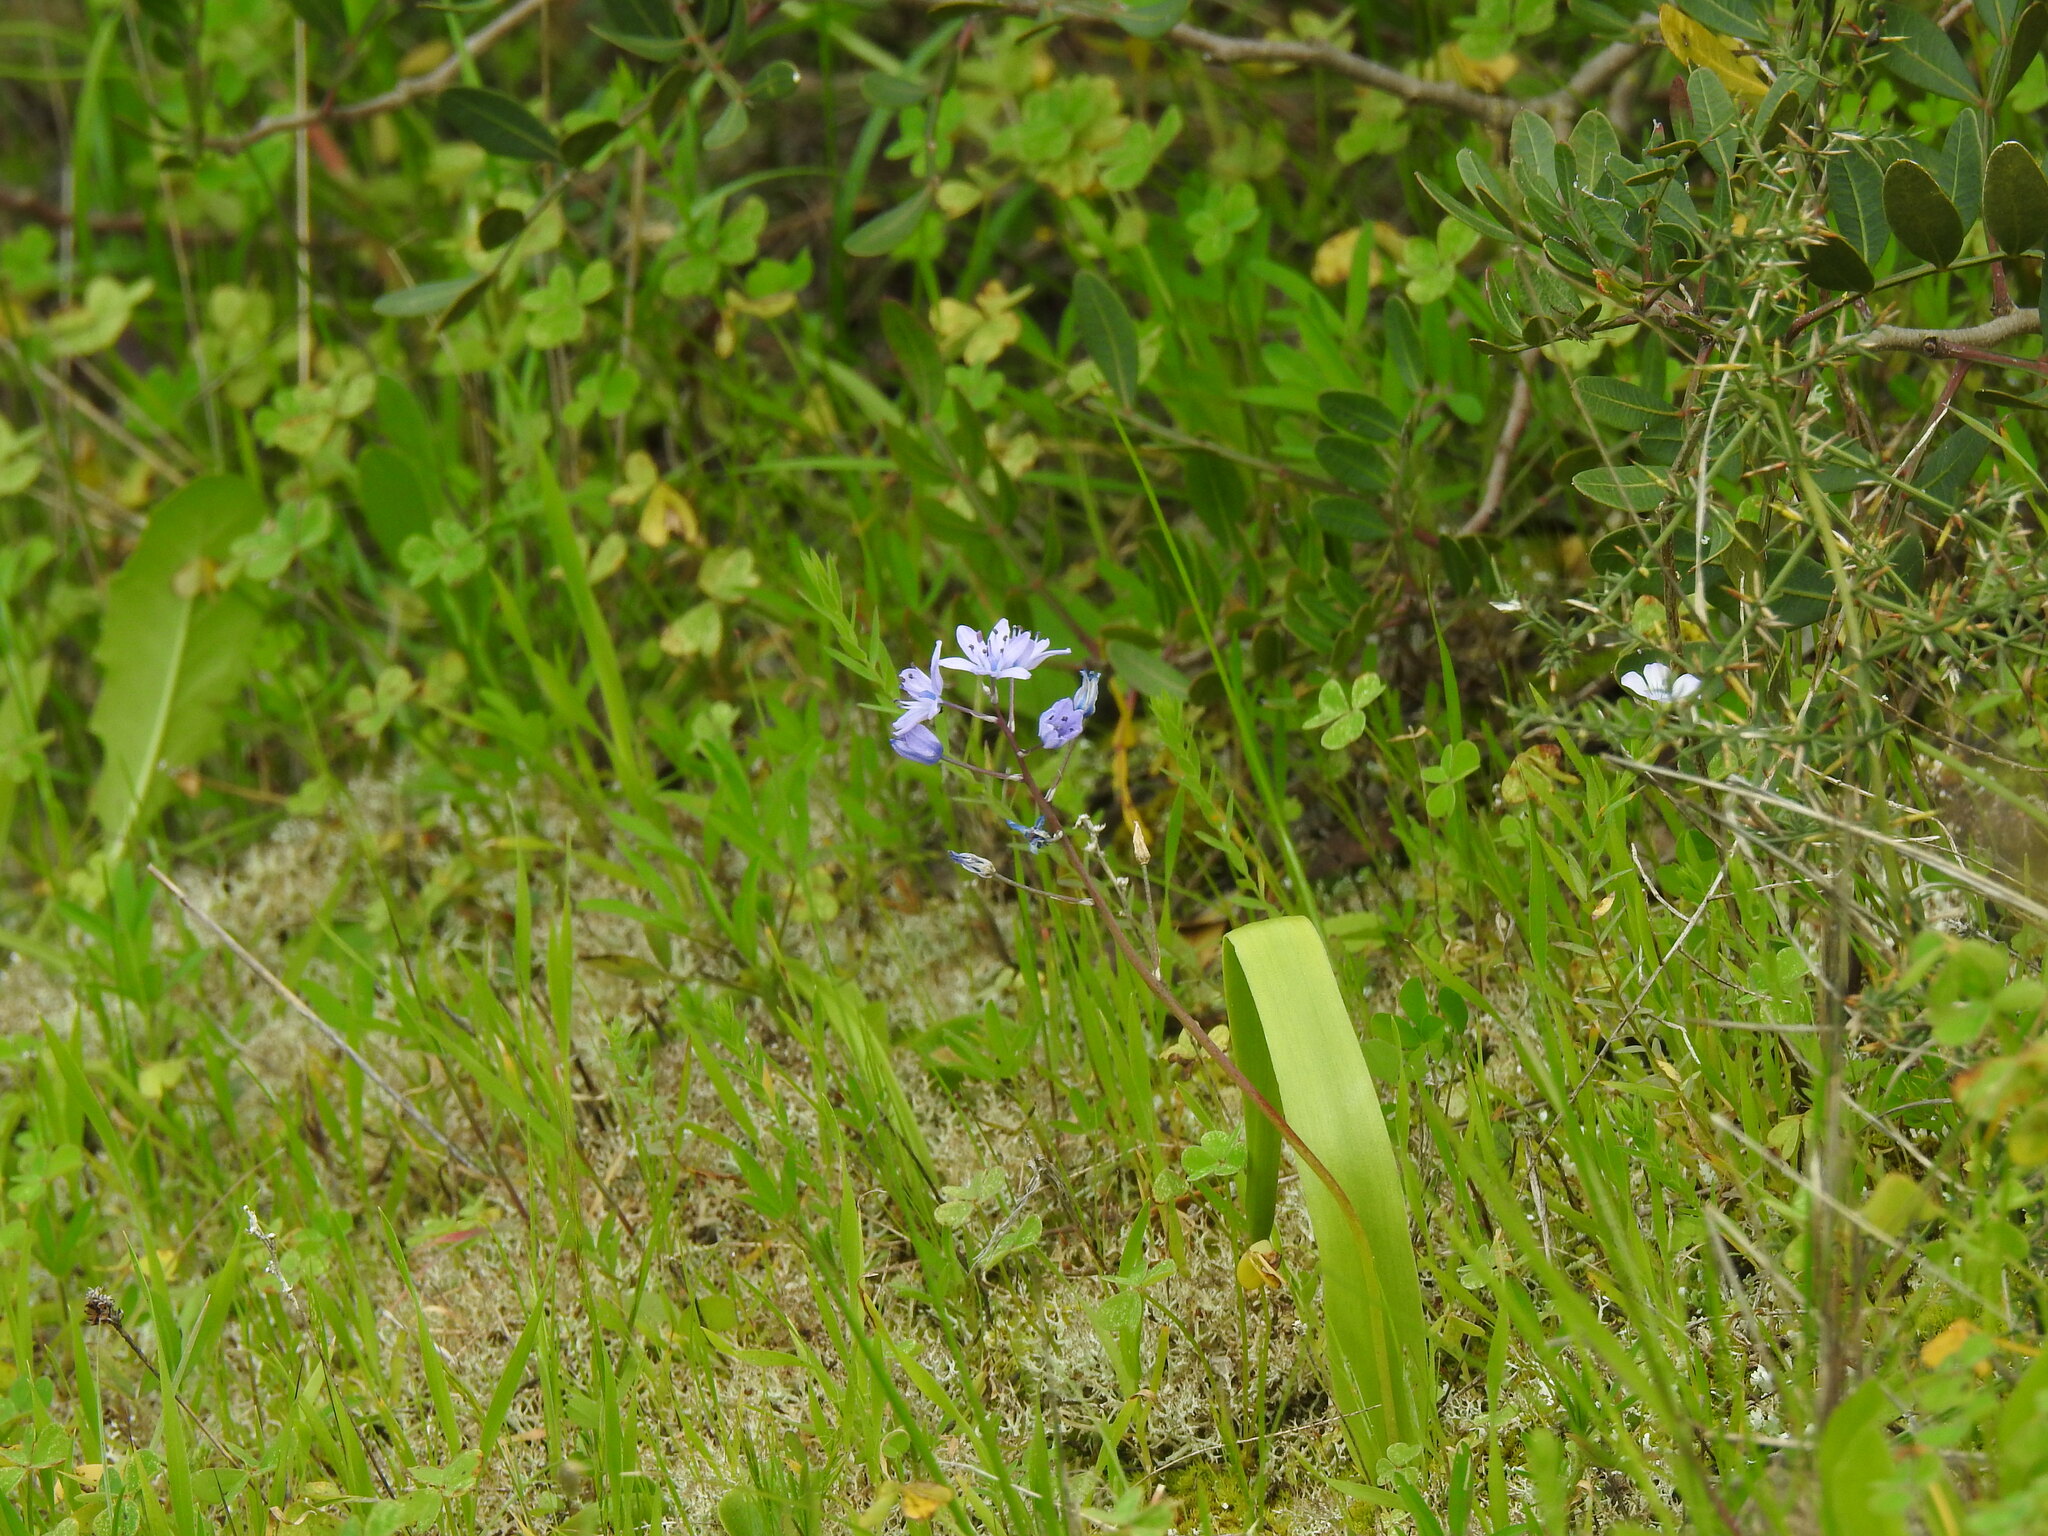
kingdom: Plantae
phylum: Tracheophyta
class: Liliopsida
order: Asparagales
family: Asparagaceae
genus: Scilla
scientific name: Scilla monophyllos
